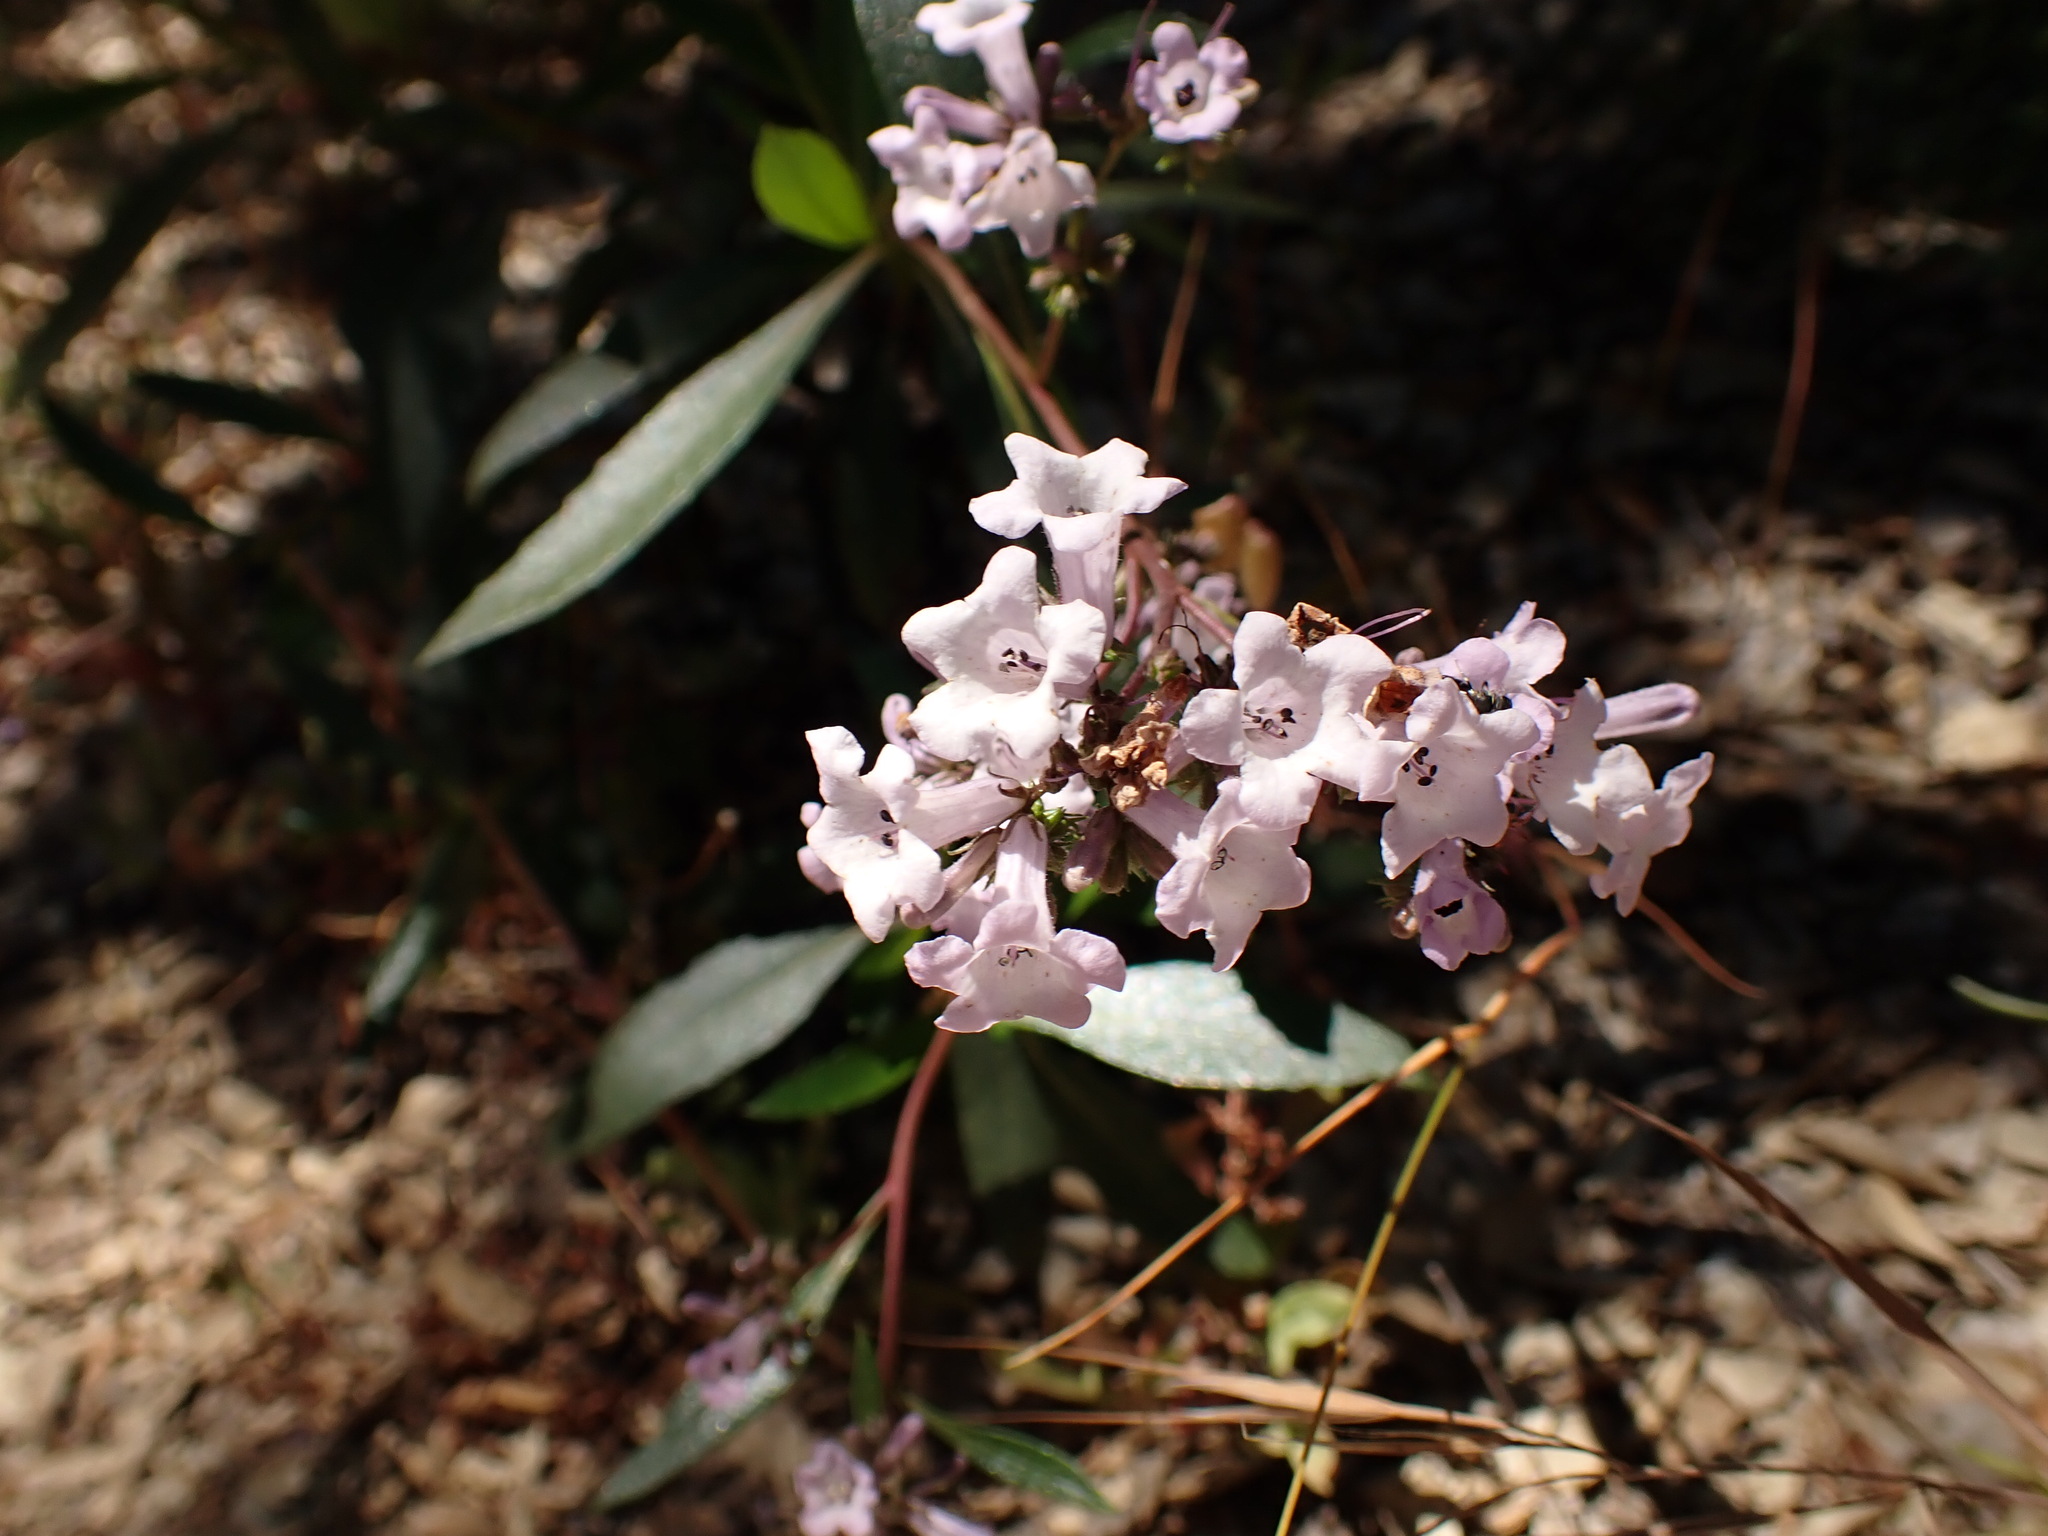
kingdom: Plantae
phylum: Tracheophyta
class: Magnoliopsida
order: Boraginales
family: Namaceae
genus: Eriodictyon
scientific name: Eriodictyon californicum
